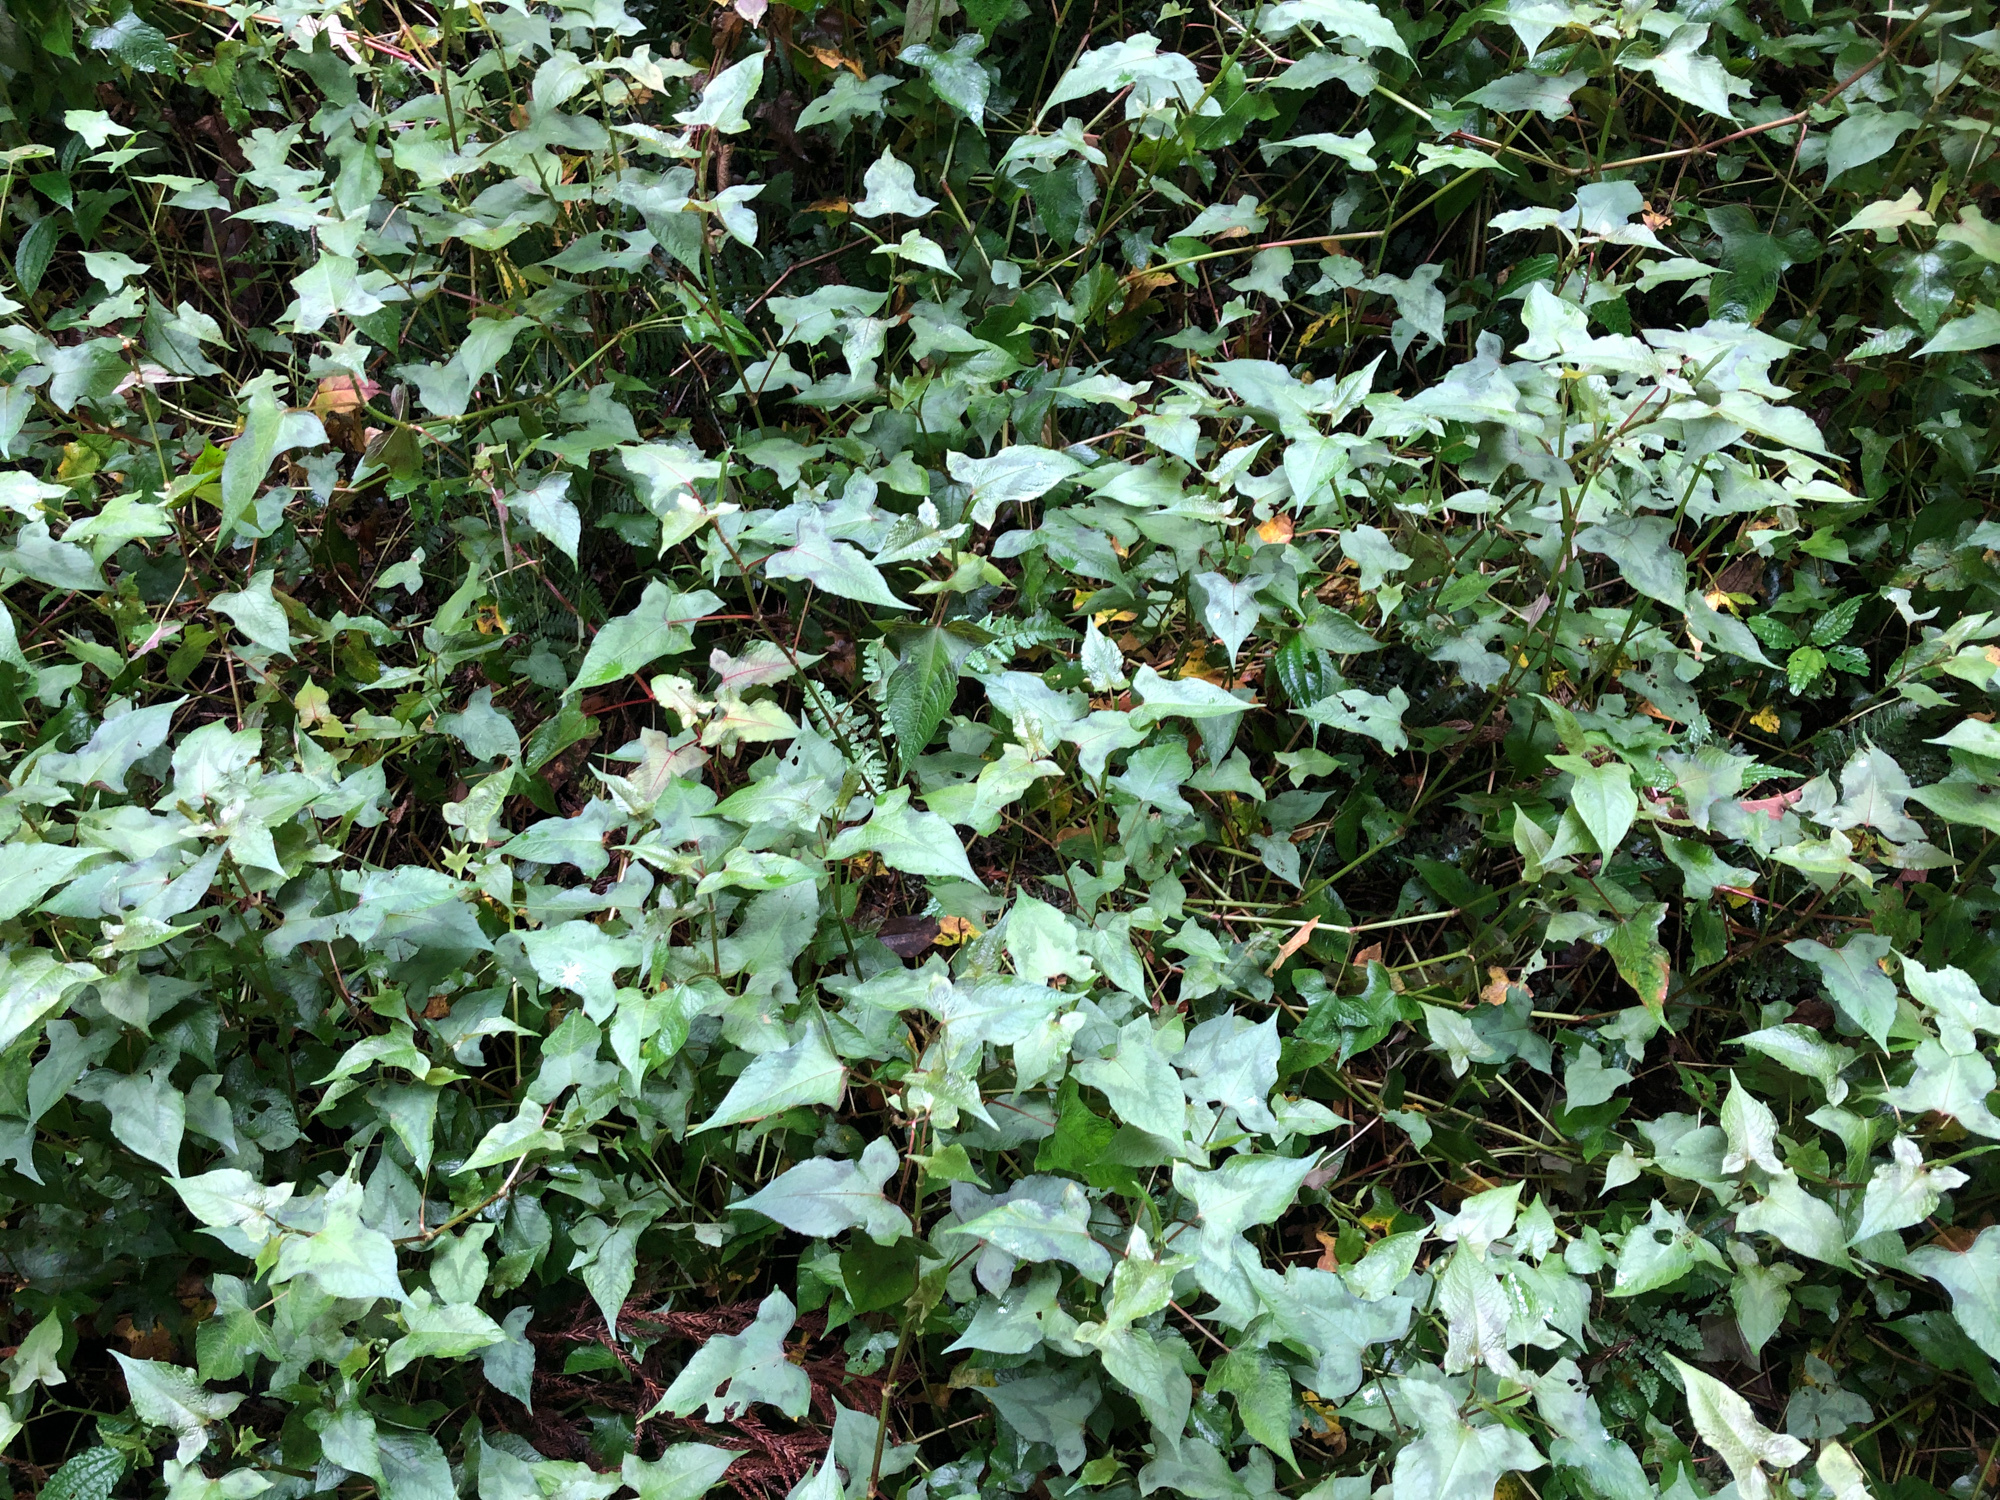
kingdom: Plantae
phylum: Tracheophyta
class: Magnoliopsida
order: Caryophyllales
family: Polygonaceae
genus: Persicaria
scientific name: Persicaria biconvexa
